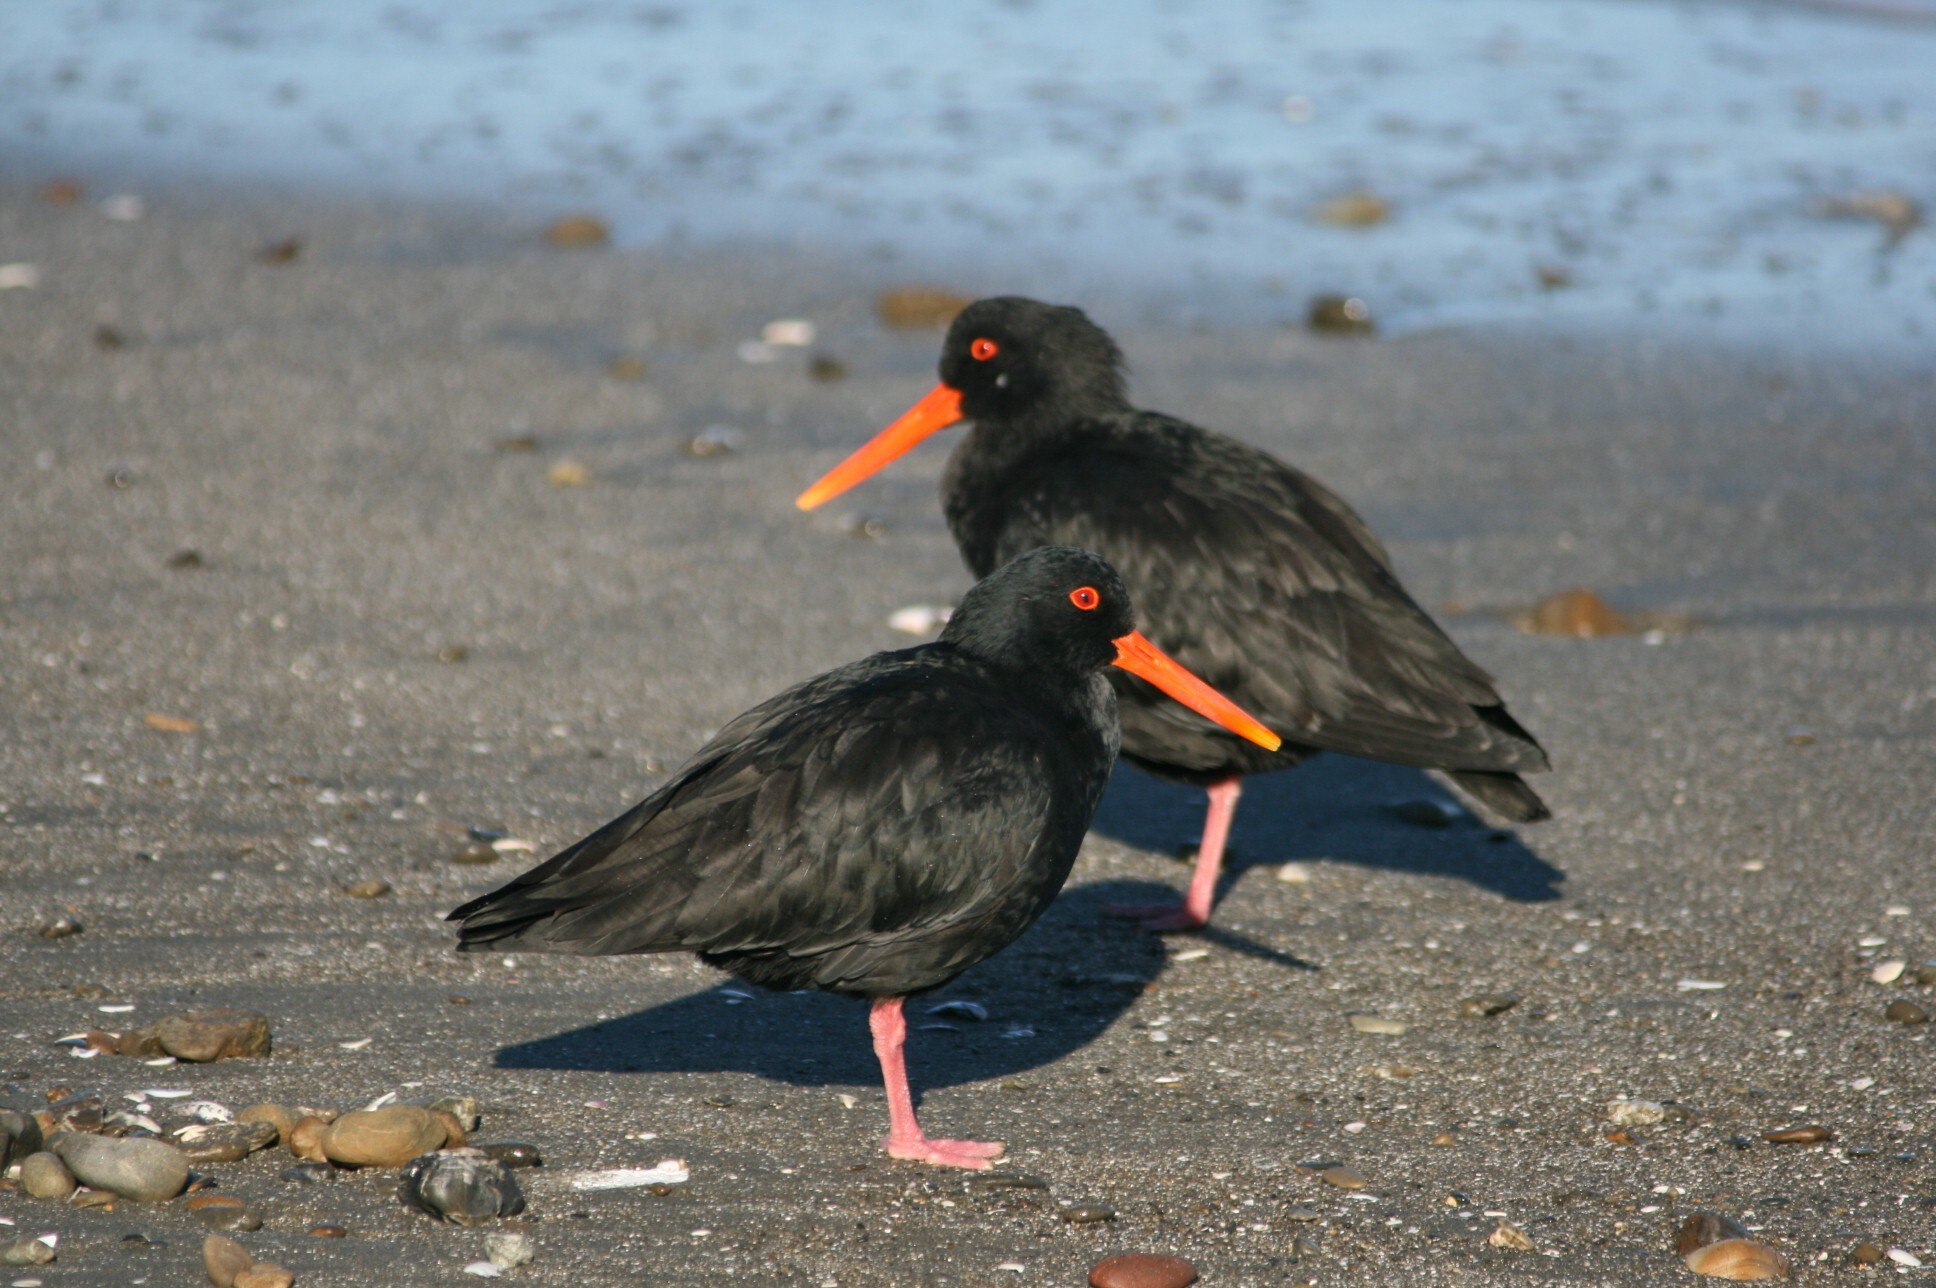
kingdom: Animalia
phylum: Chordata
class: Aves
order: Charadriiformes
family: Haematopodidae
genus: Haematopus
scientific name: Haematopus unicolor
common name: Variable oystercatcher
